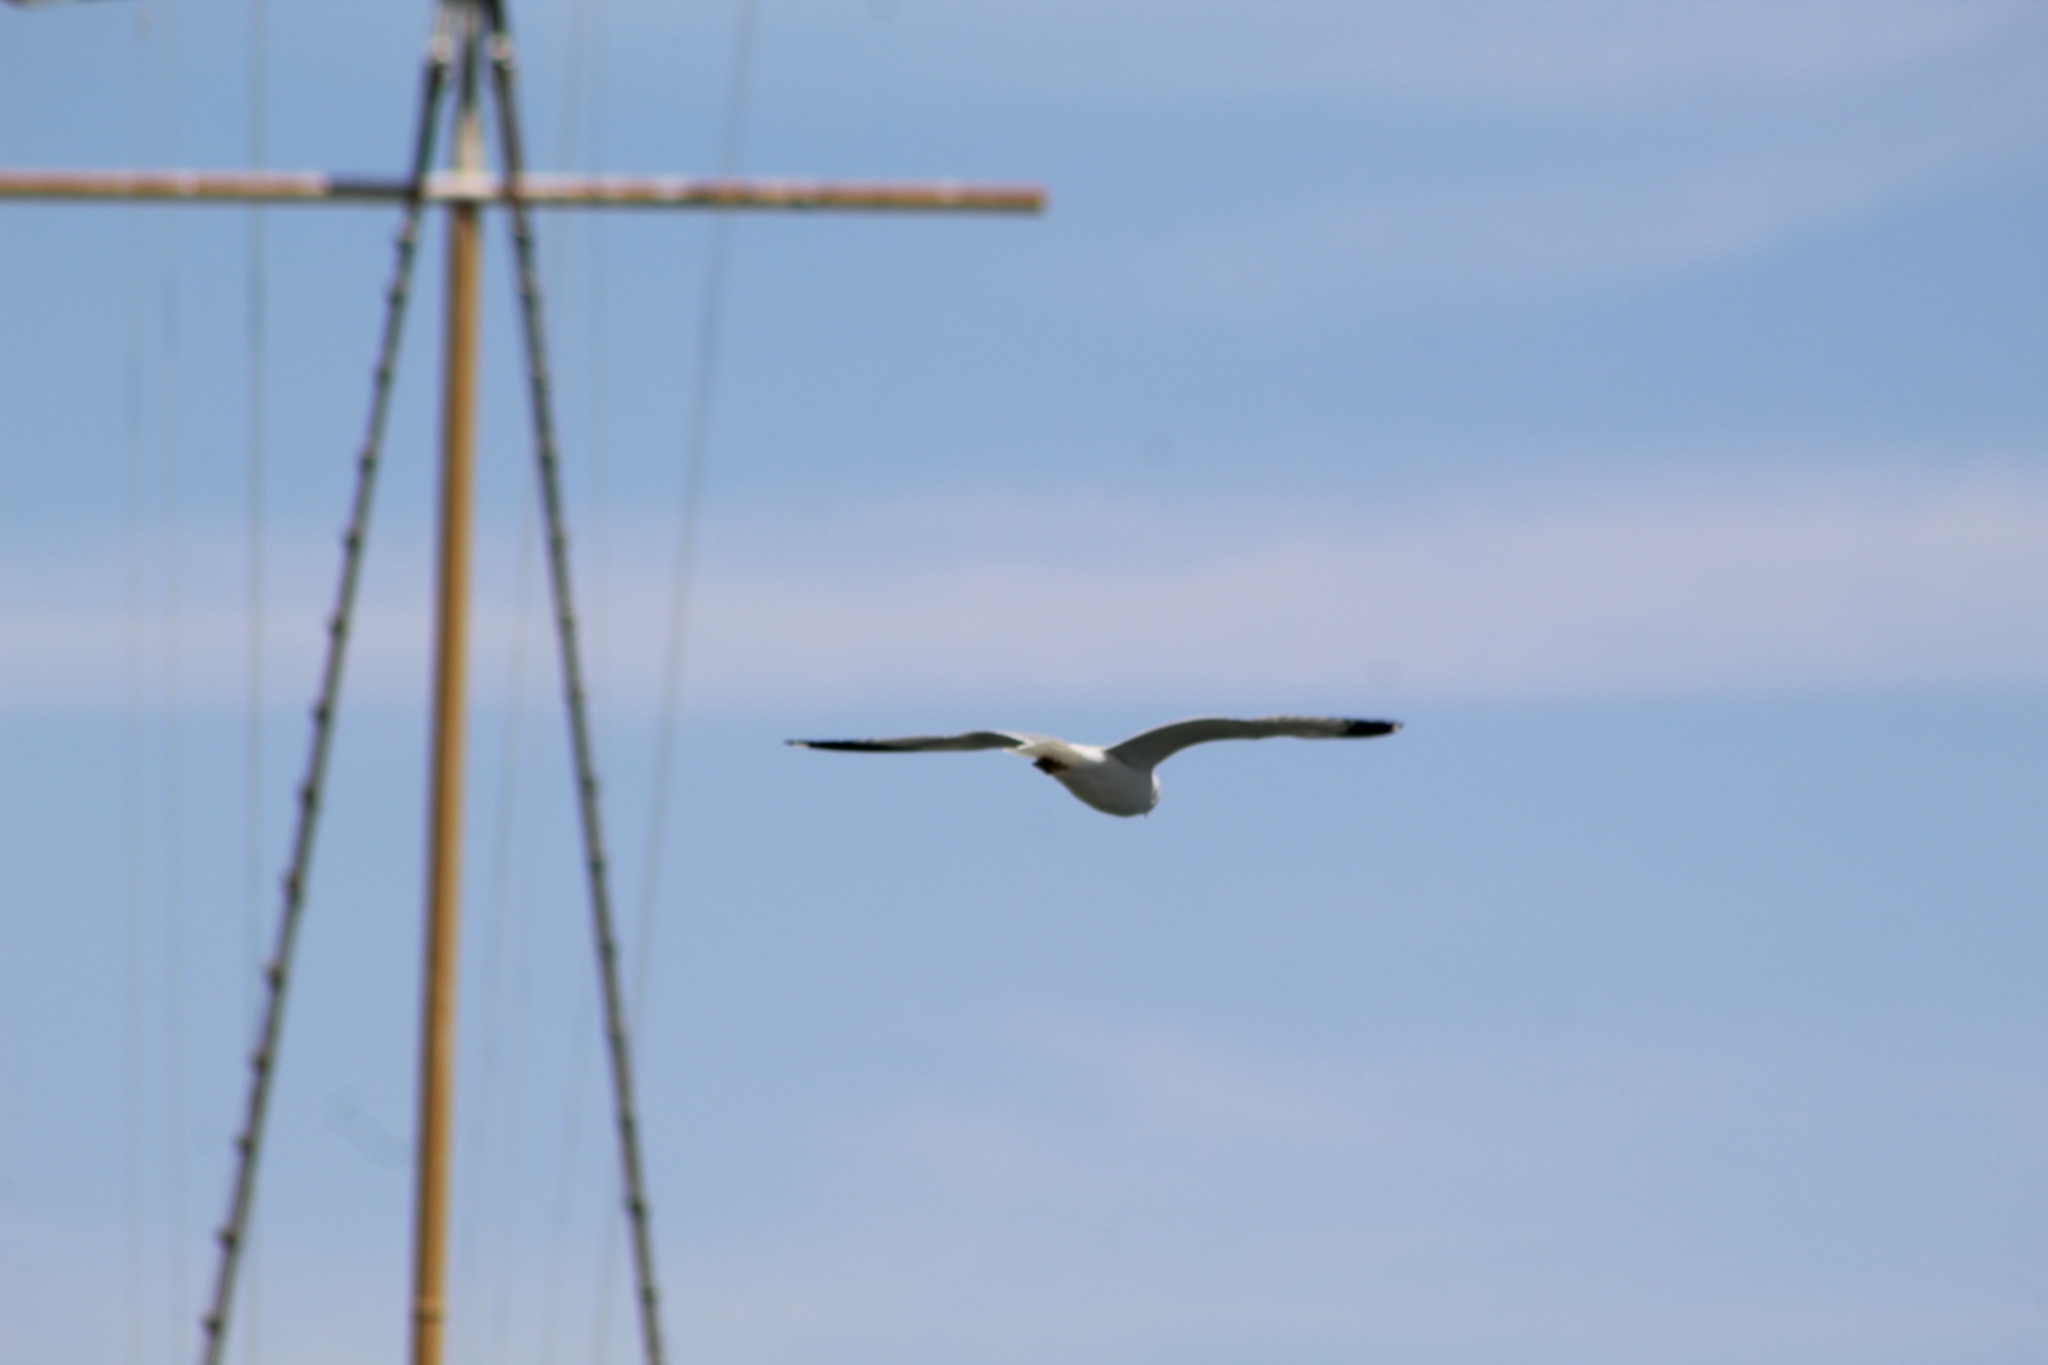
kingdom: Animalia
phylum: Chordata
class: Aves
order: Charadriiformes
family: Laridae
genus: Larus
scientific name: Larus delawarensis
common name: Ring-billed gull
